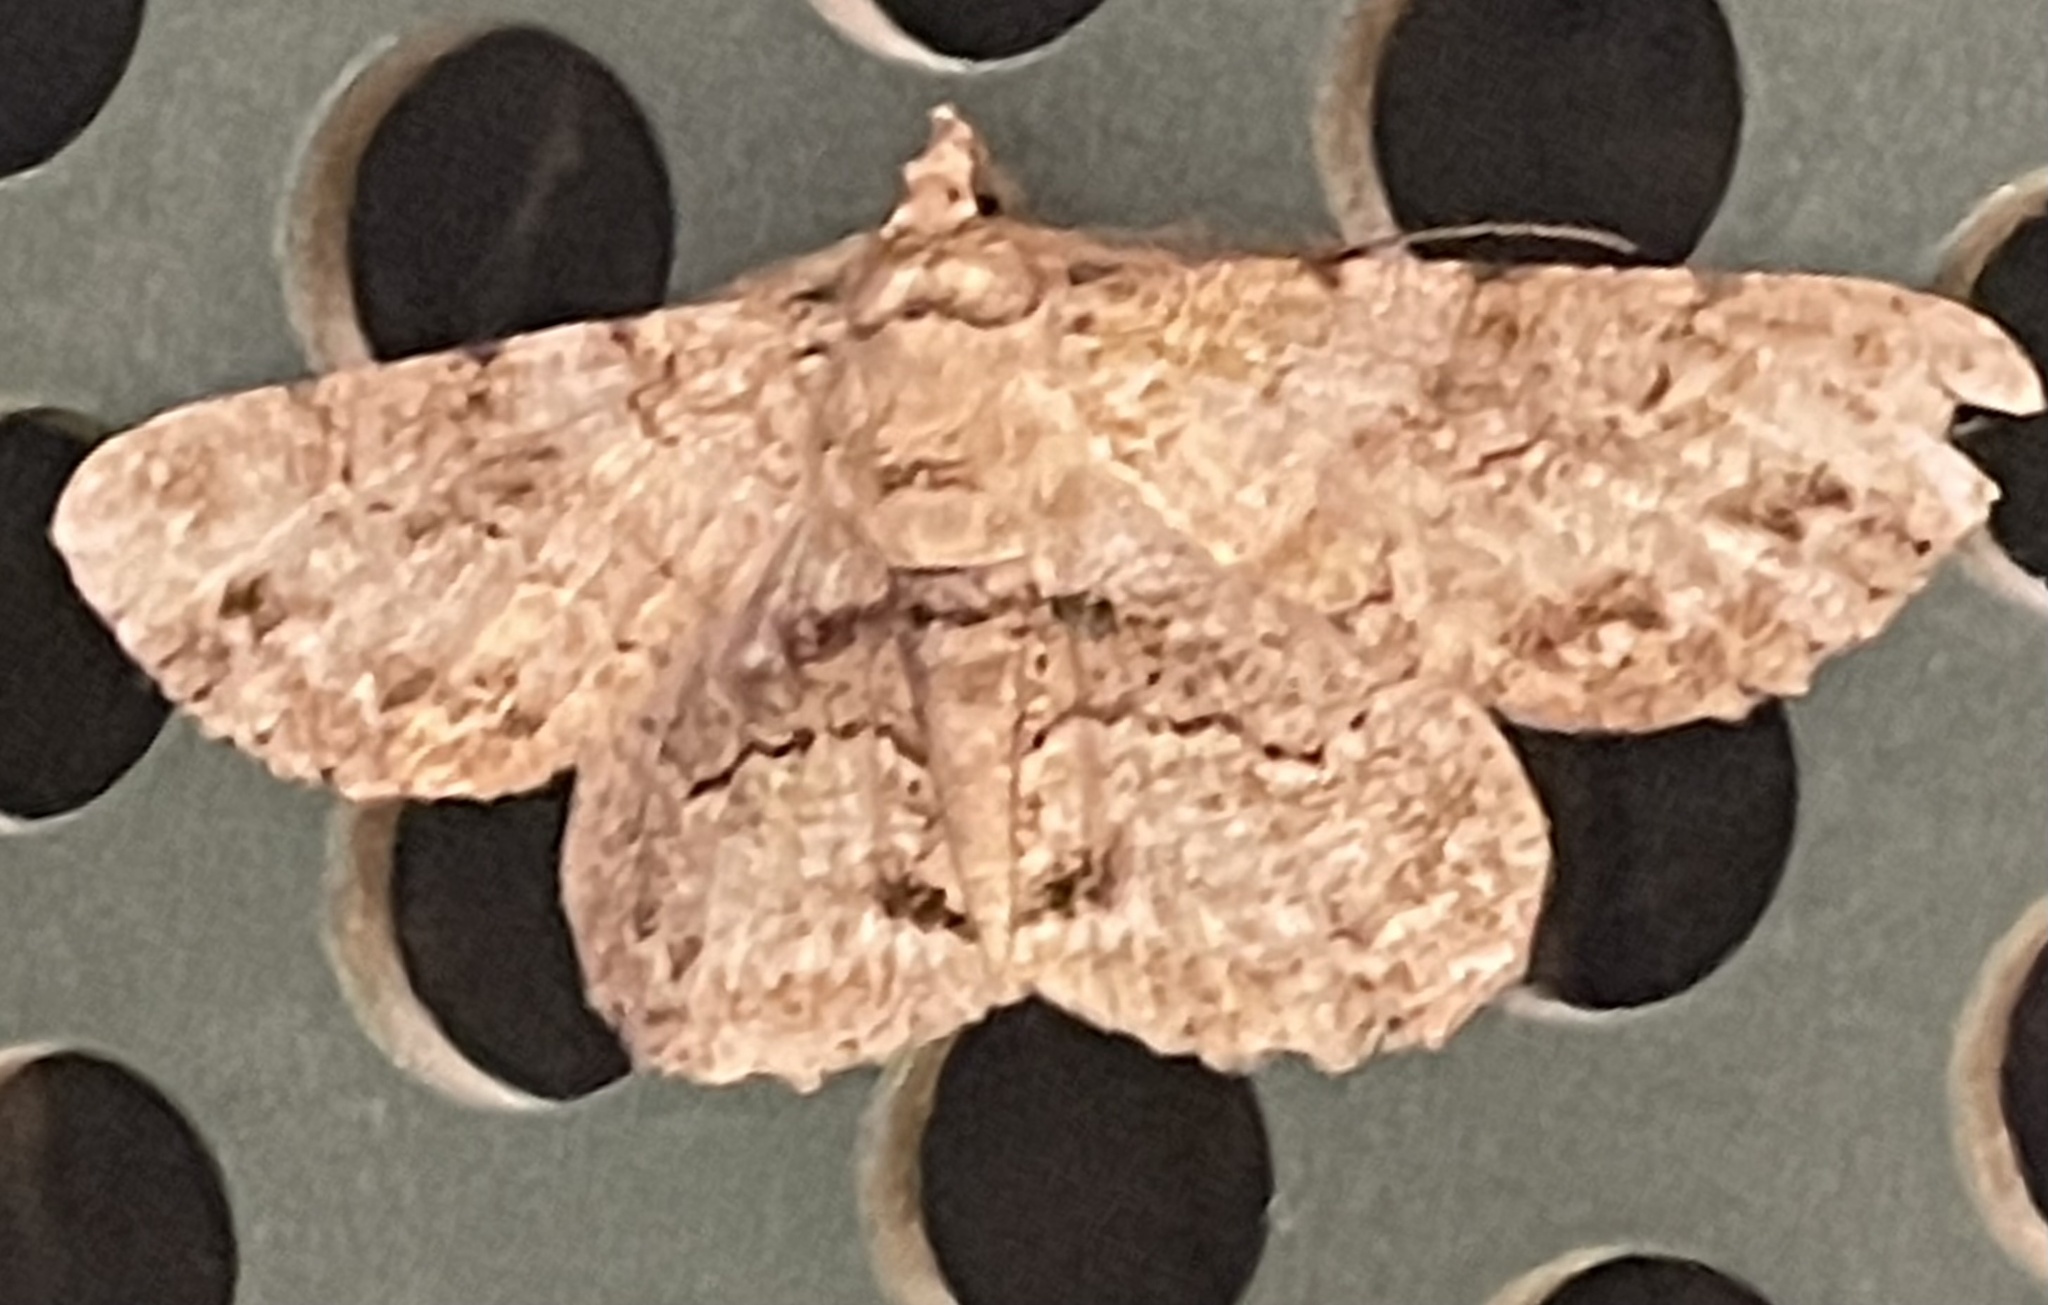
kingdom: Animalia
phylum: Arthropoda
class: Insecta
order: Lepidoptera
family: Geometridae
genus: Cleora
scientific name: Cleora repetita
